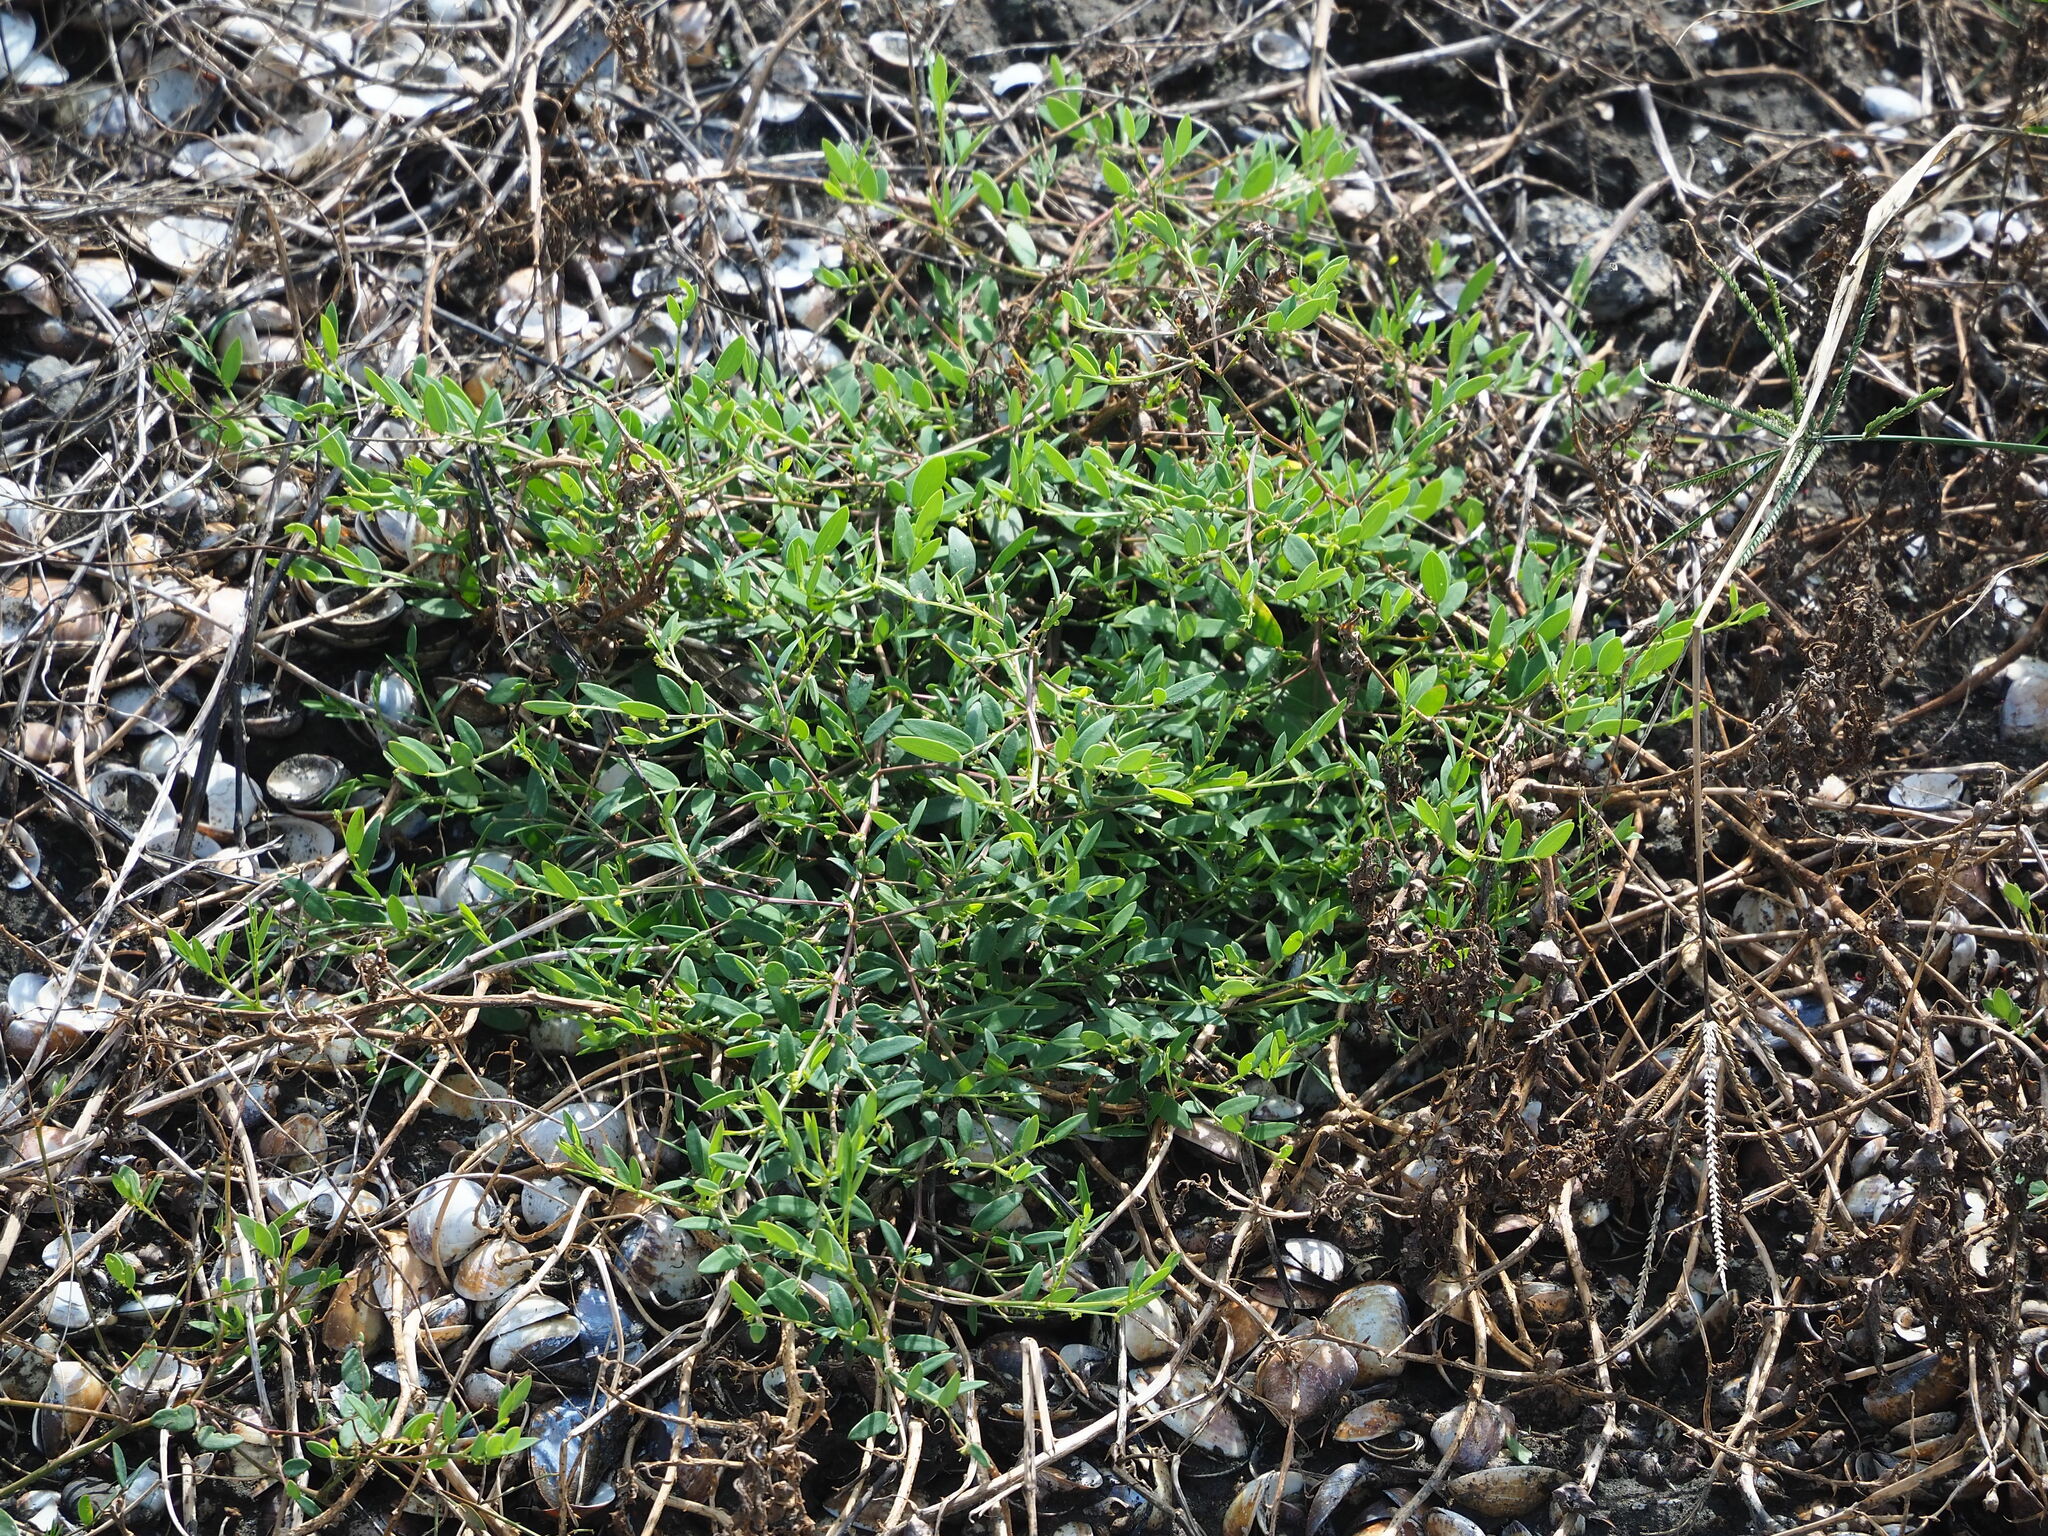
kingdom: Plantae
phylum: Tracheophyta
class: Magnoliopsida
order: Malpighiales
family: Phyllanthaceae
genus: Synostemon
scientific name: Synostemon bacciformis
